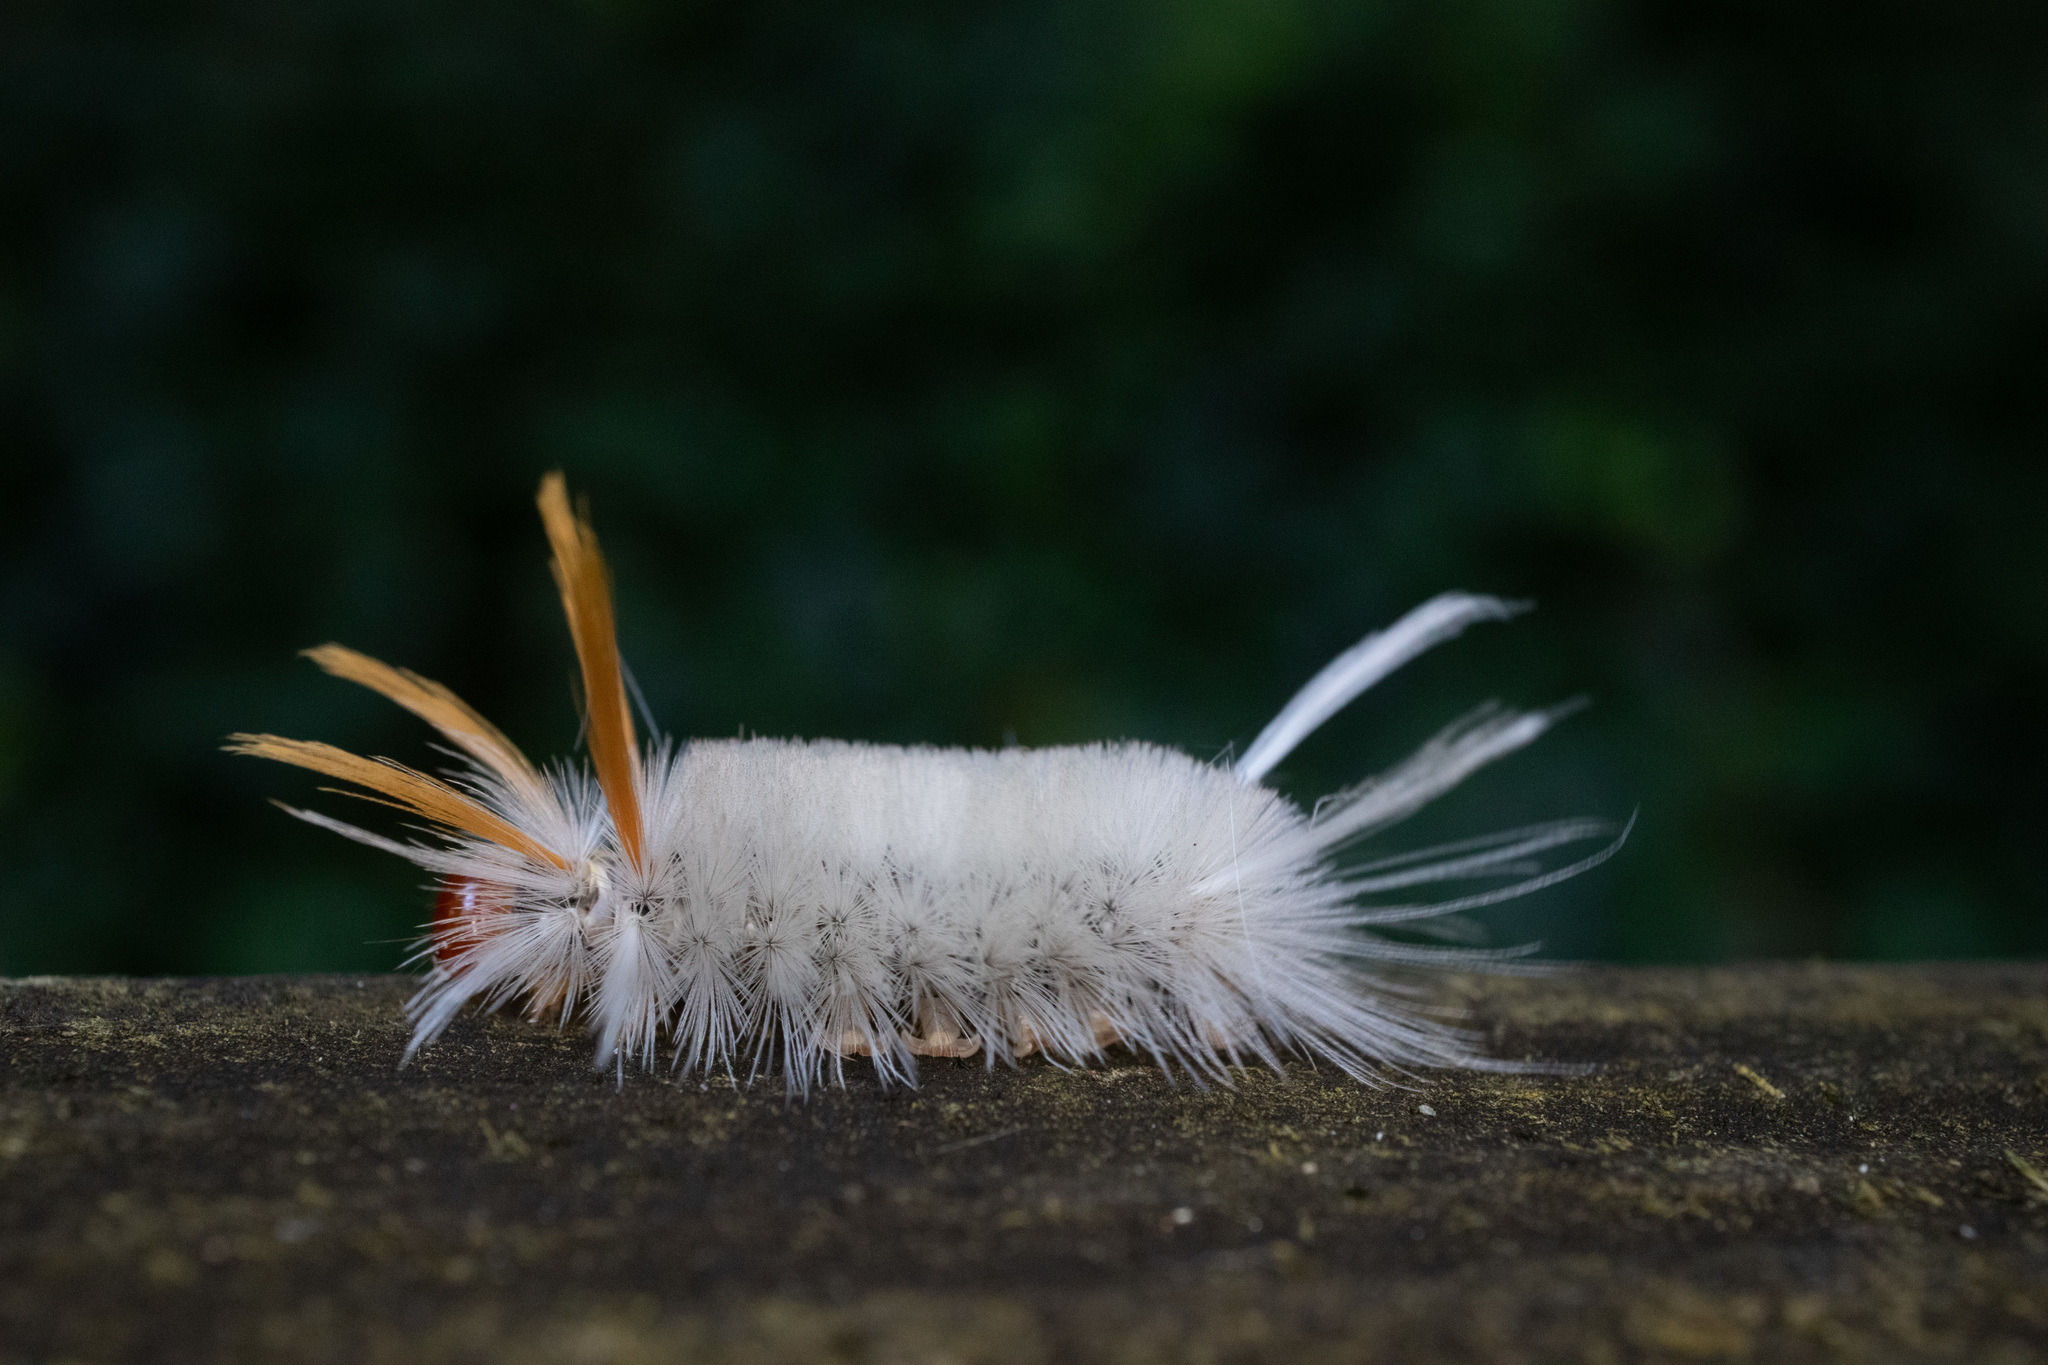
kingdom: Animalia
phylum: Arthropoda
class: Insecta
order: Lepidoptera
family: Erebidae
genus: Halysidota
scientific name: Halysidota harrisii
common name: Sycamore tussock moth
